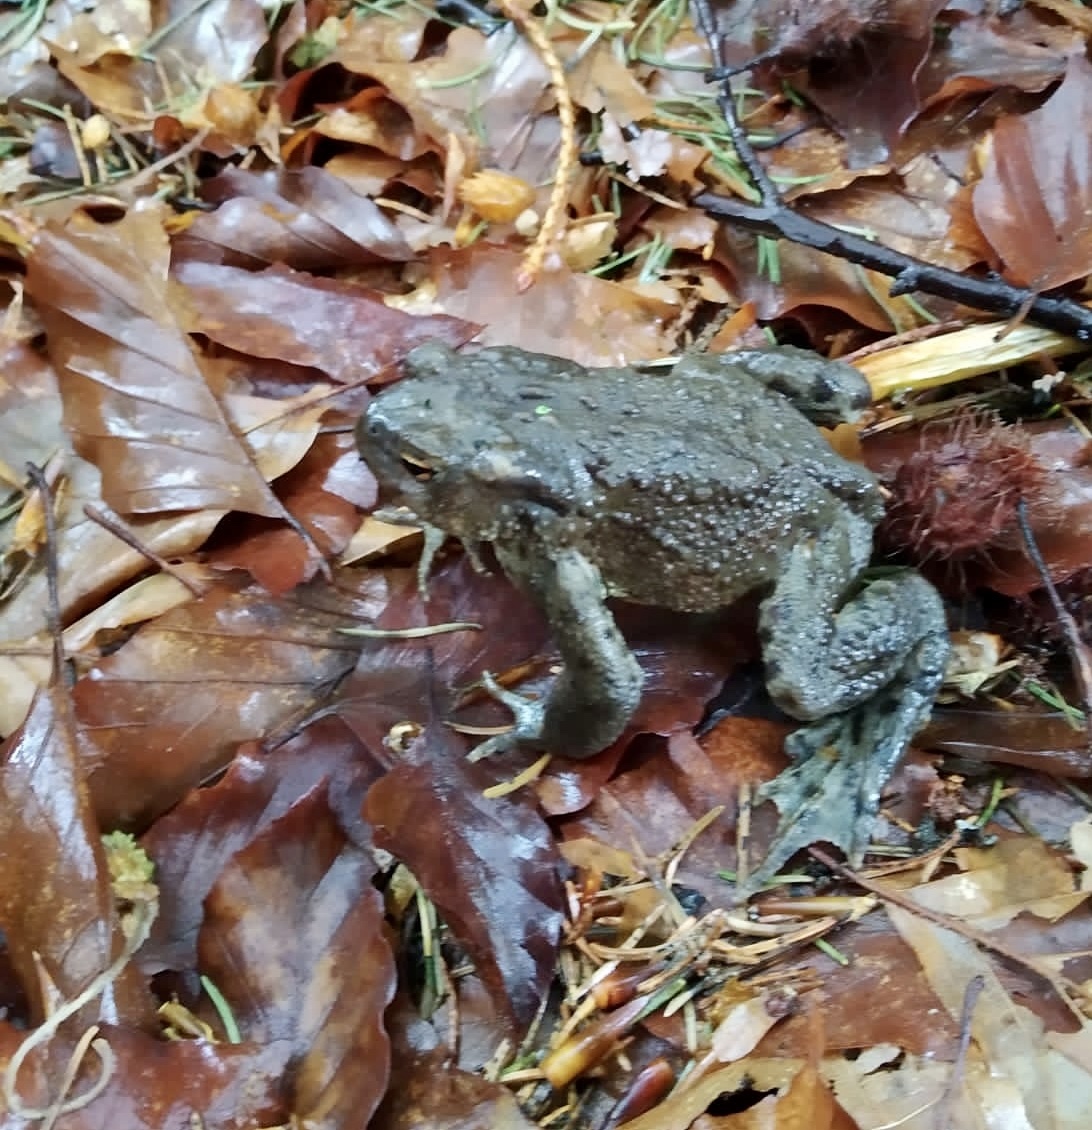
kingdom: Animalia
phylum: Chordata
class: Amphibia
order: Anura
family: Bufonidae
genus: Bufo
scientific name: Bufo bufo
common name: Common toad
